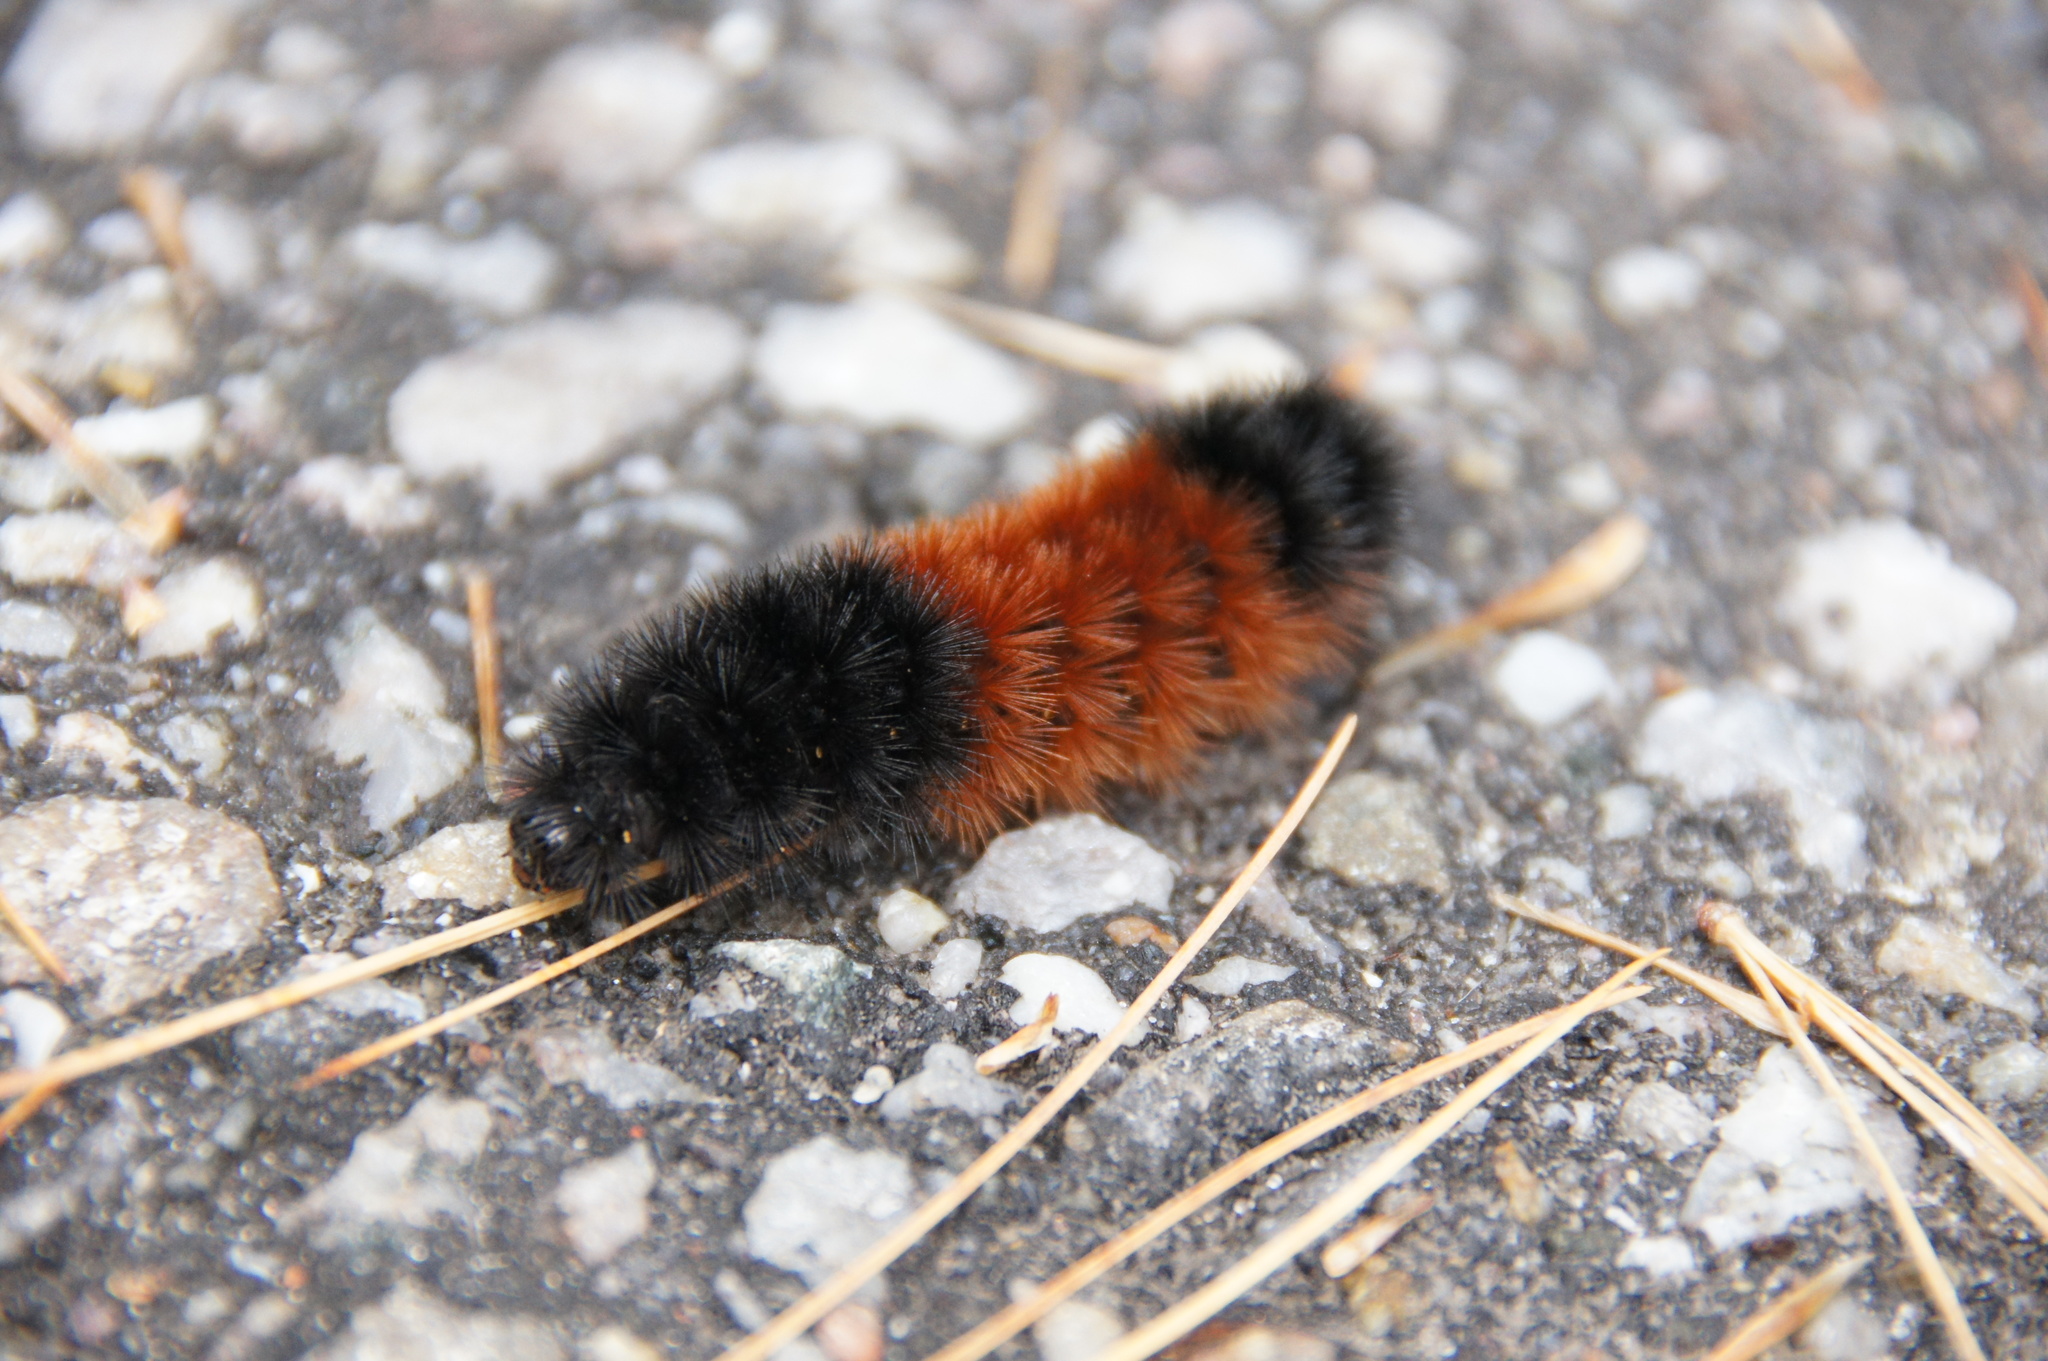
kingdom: Animalia
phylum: Arthropoda
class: Insecta
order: Lepidoptera
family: Erebidae
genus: Pyrrharctia
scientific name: Pyrrharctia isabella
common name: Isabella tiger moth
